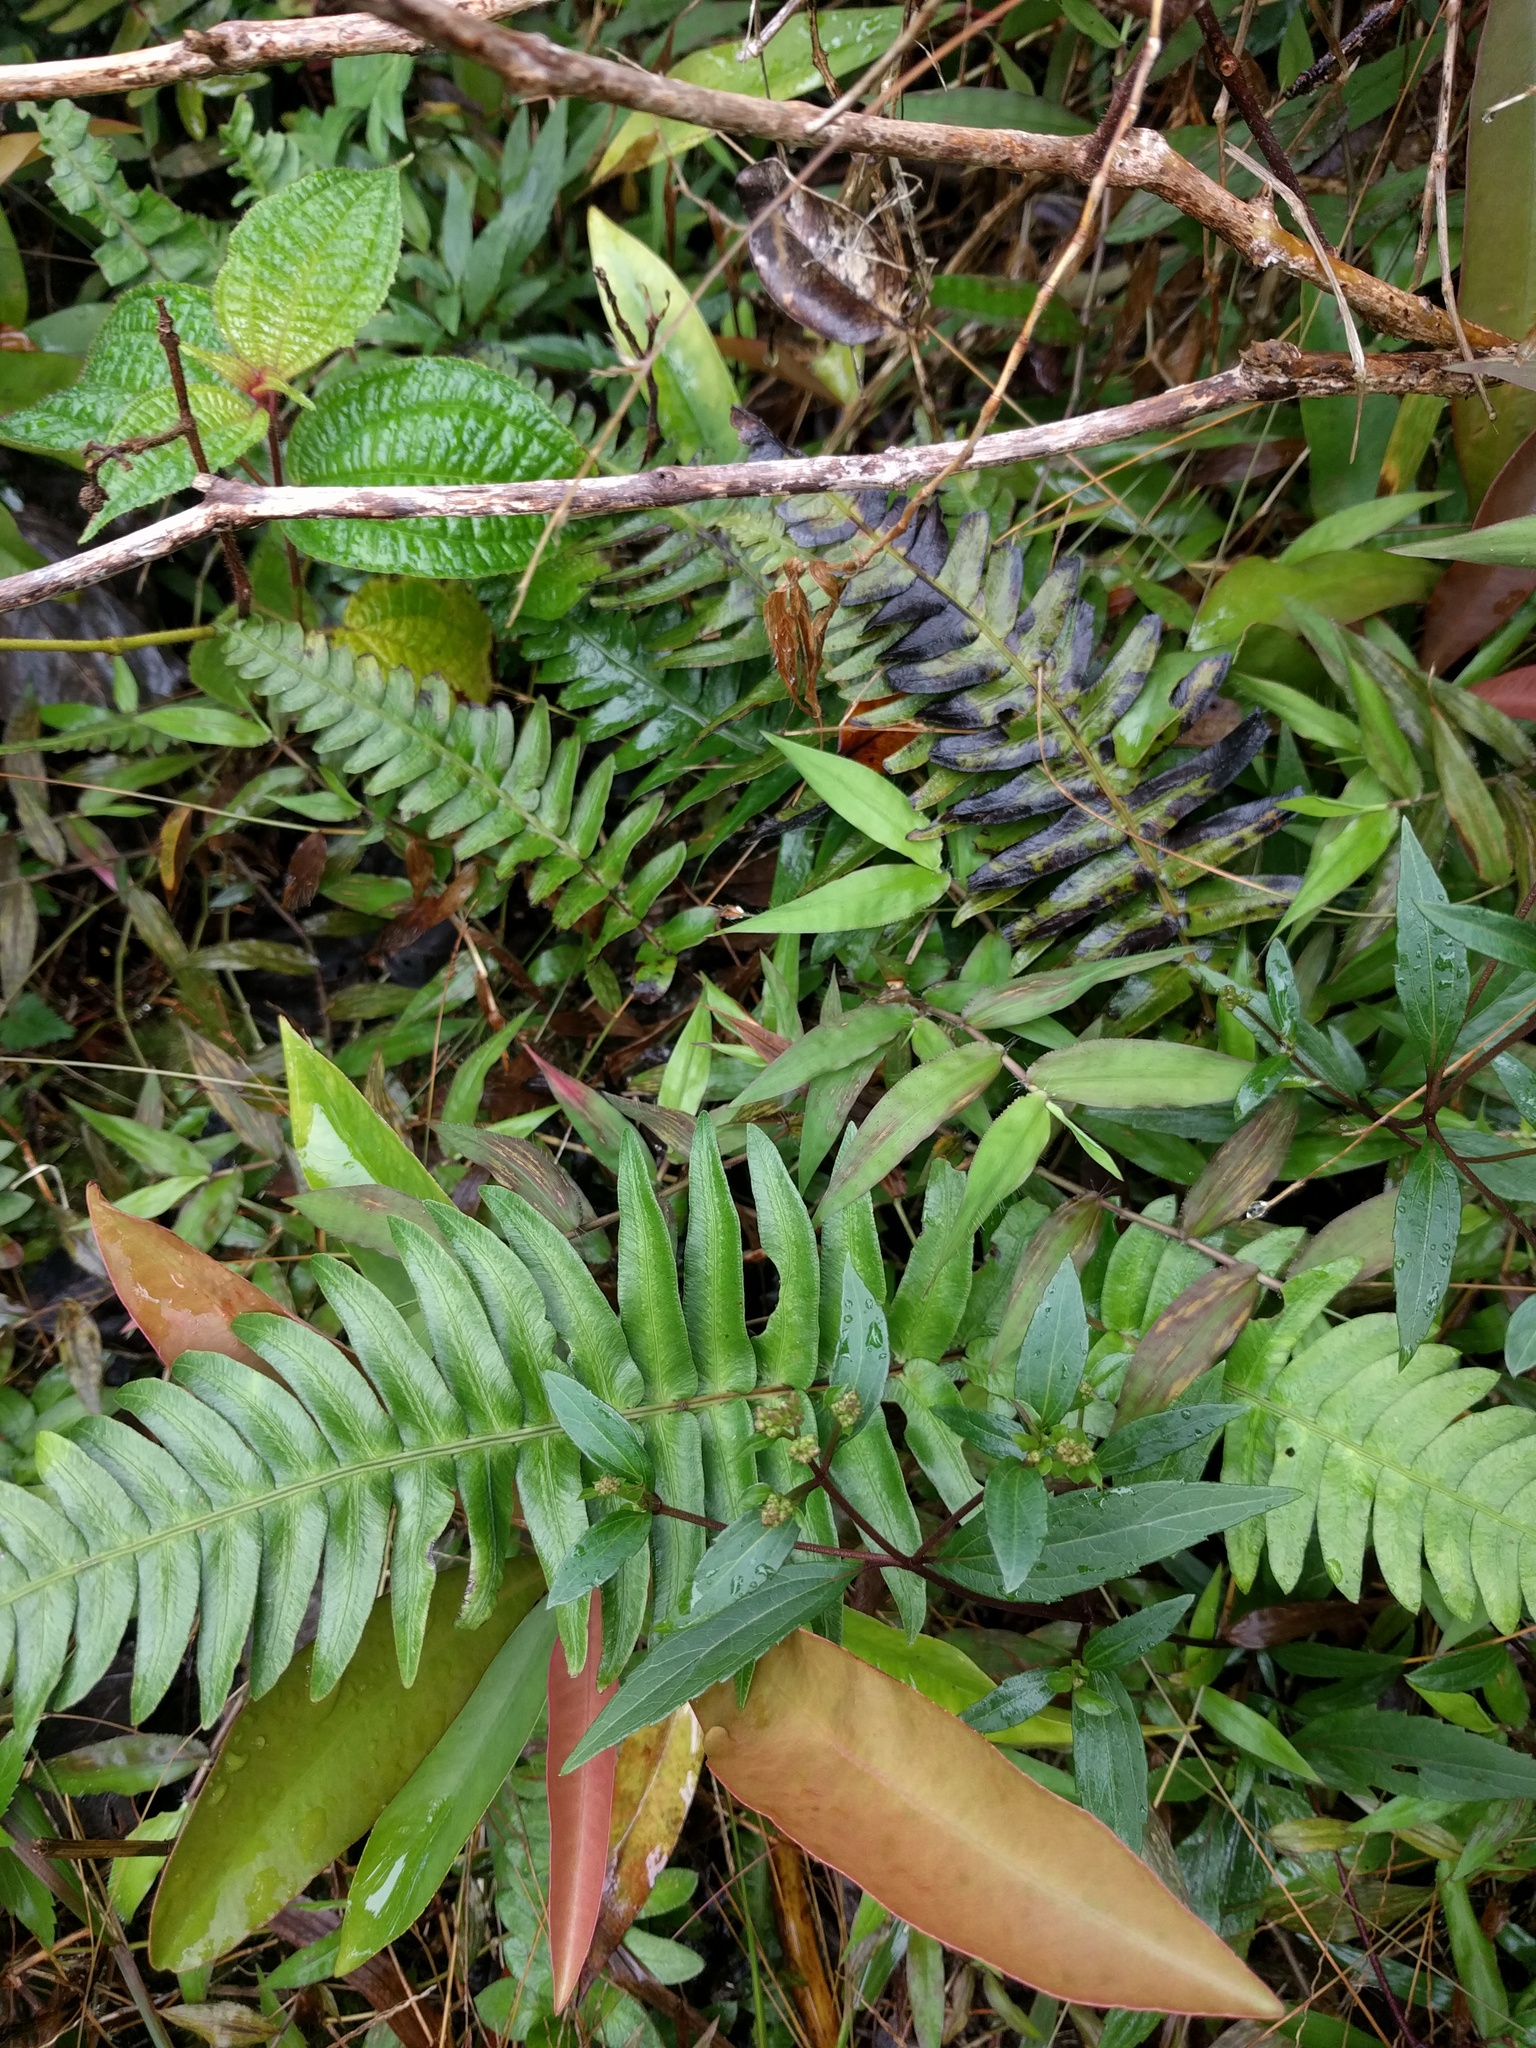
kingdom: Plantae
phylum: Tracheophyta
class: Polypodiopsida
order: Polypodiales
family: Blechnaceae
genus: Blechnum
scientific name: Blechnum appendiculatum
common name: Palm fern
